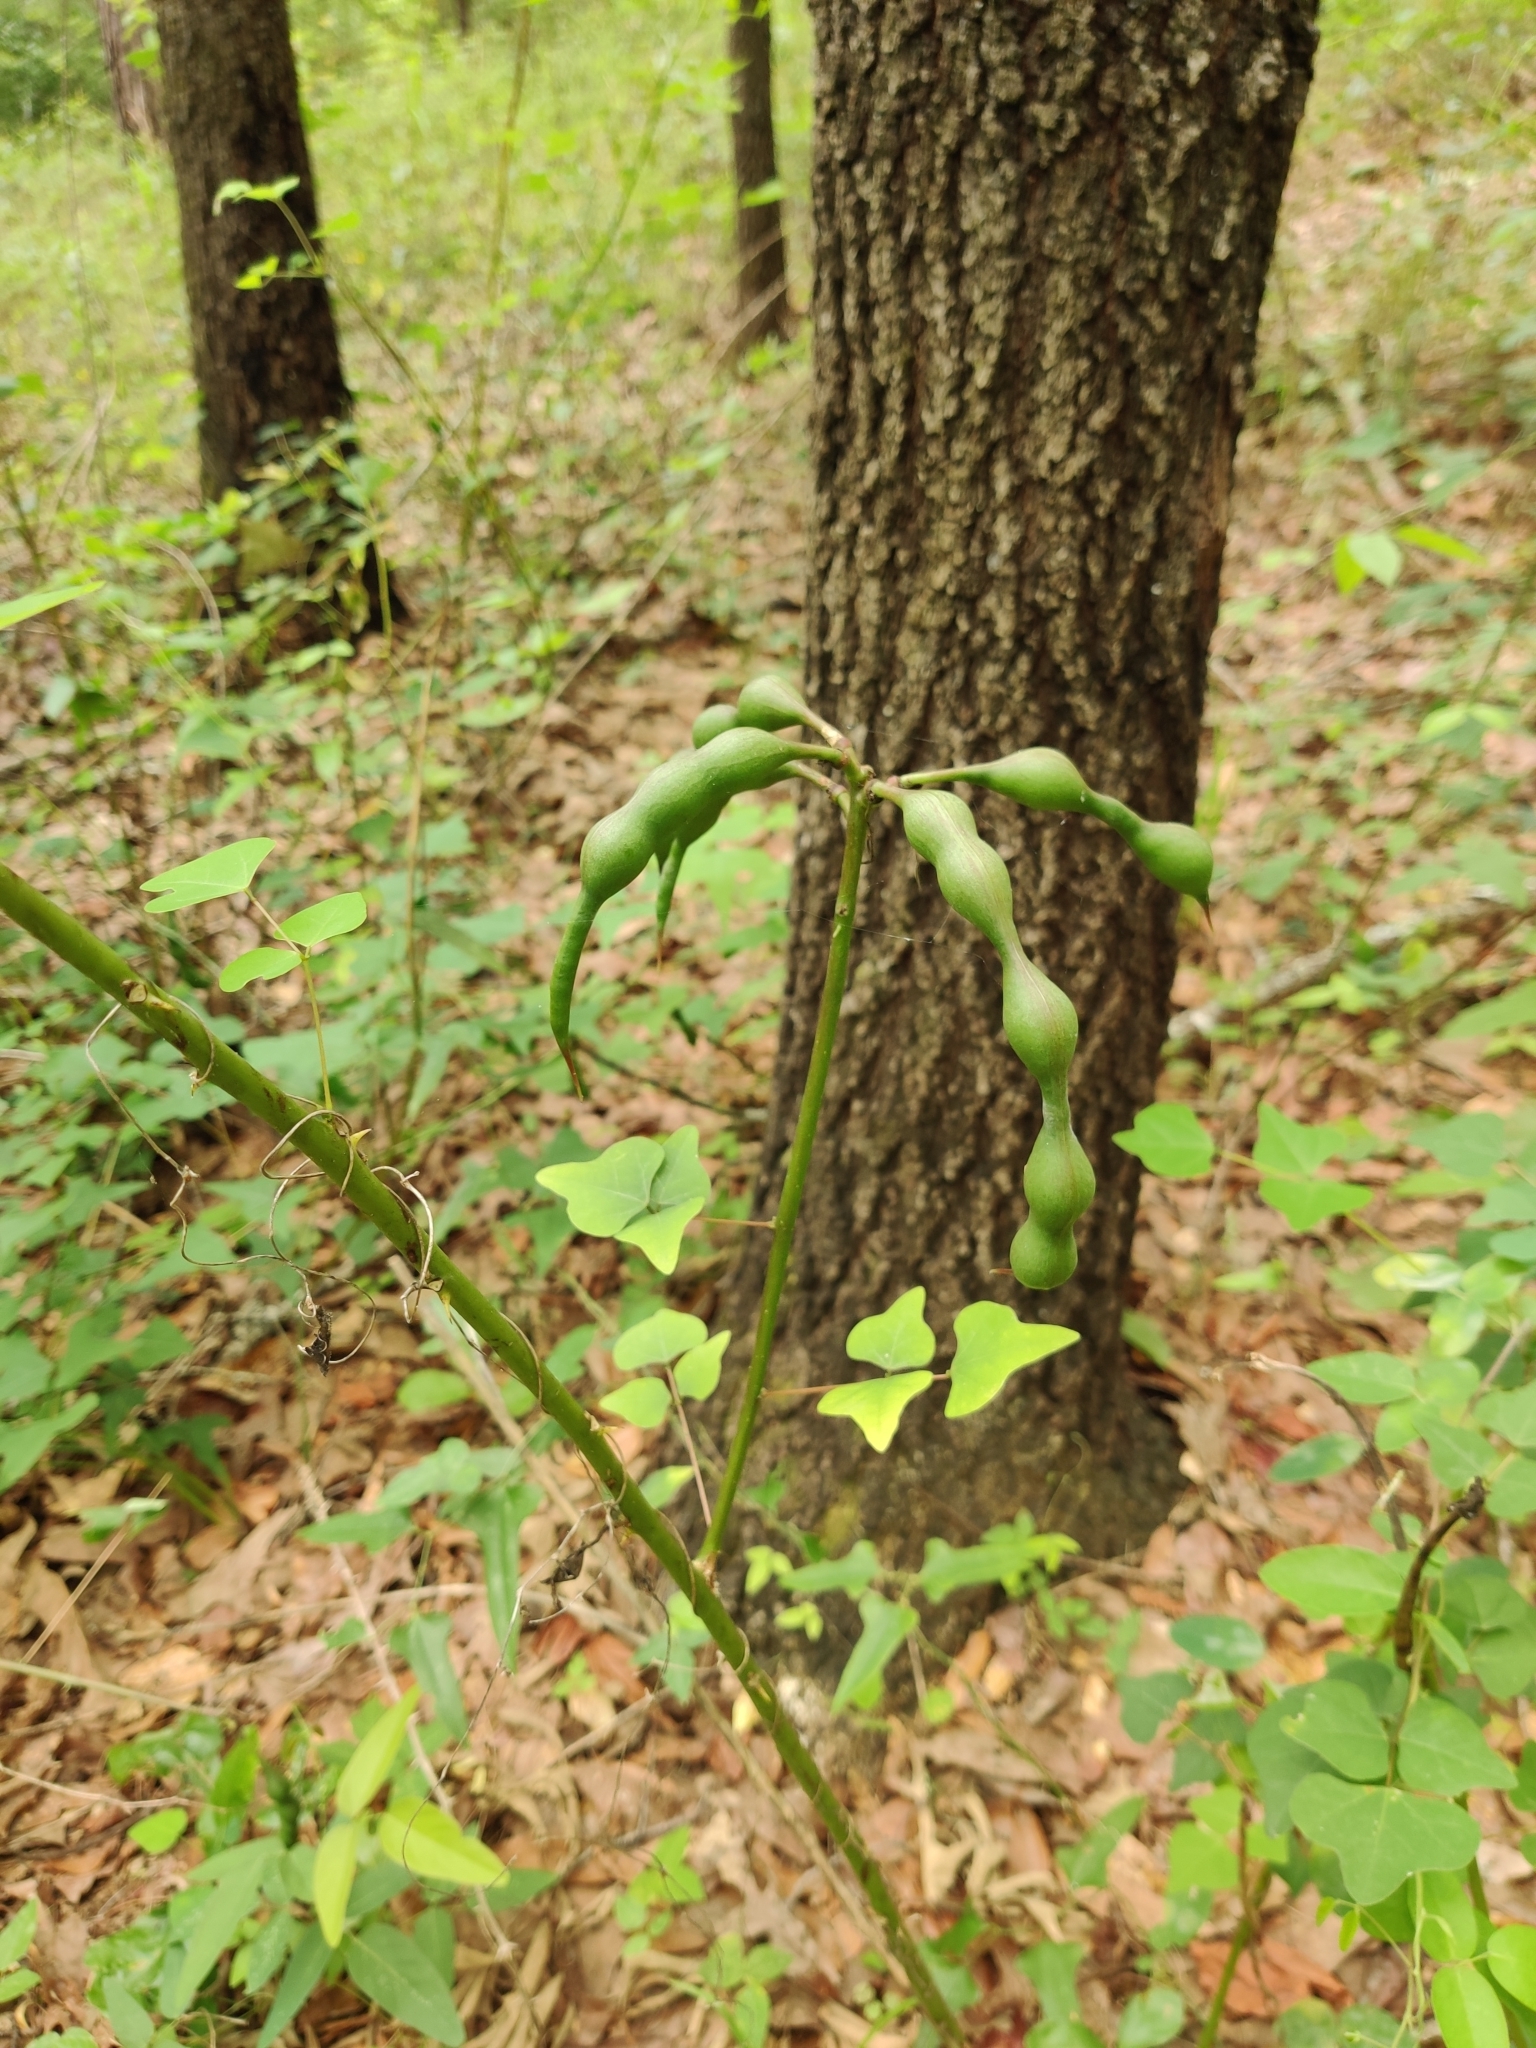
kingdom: Plantae
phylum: Tracheophyta
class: Magnoliopsida
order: Fabales
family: Fabaceae
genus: Erythrina
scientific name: Erythrina herbacea
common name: Coral-bean
